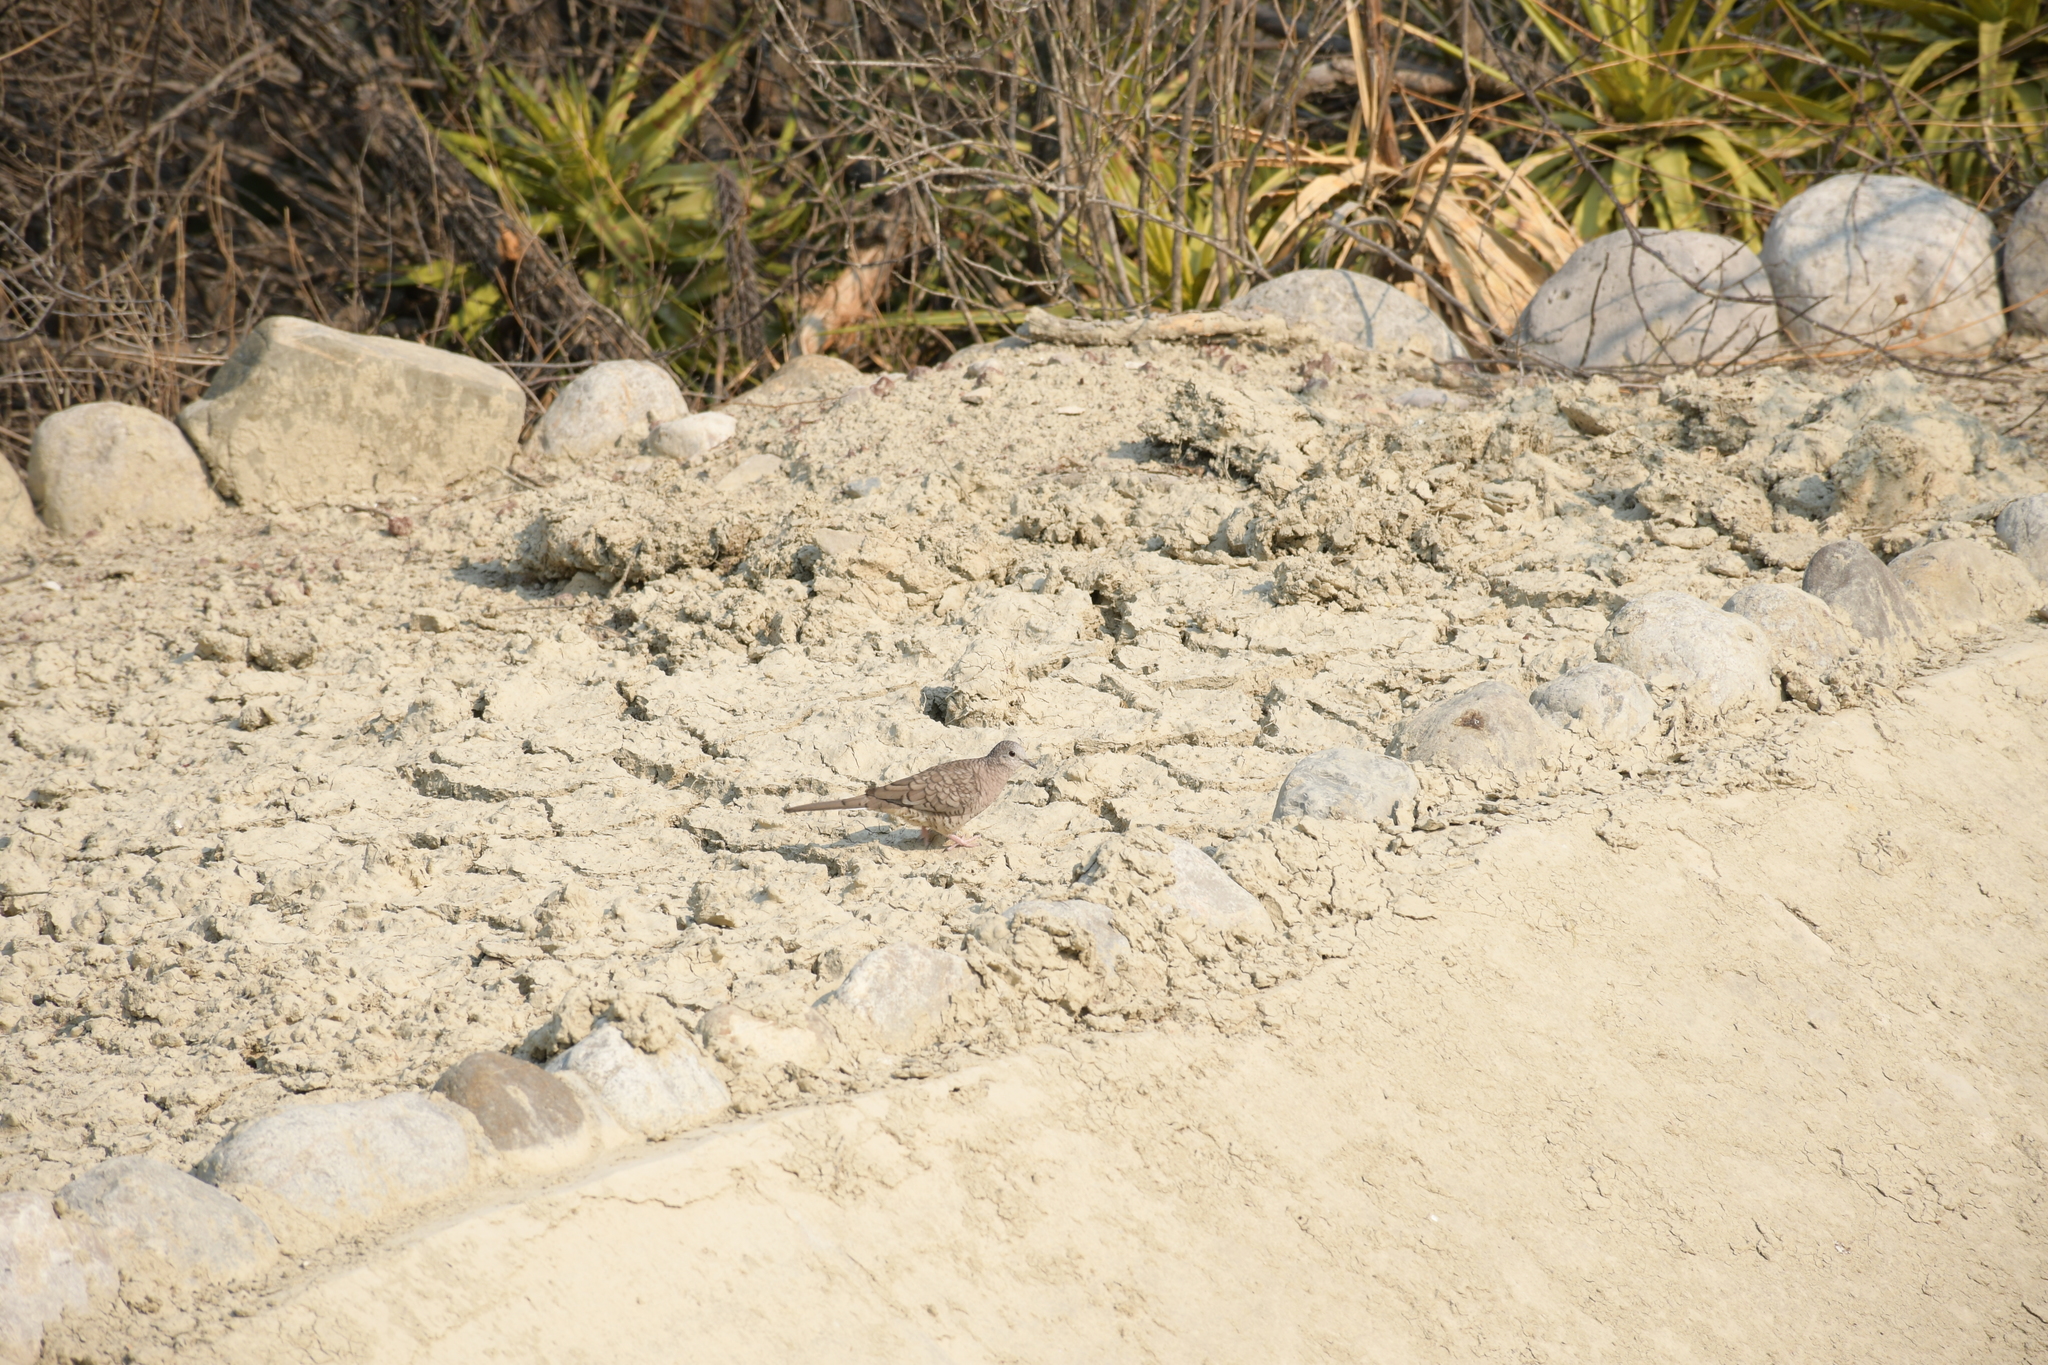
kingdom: Animalia
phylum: Chordata
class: Aves
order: Columbiformes
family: Columbidae
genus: Columbina
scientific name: Columbina inca
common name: Inca dove
